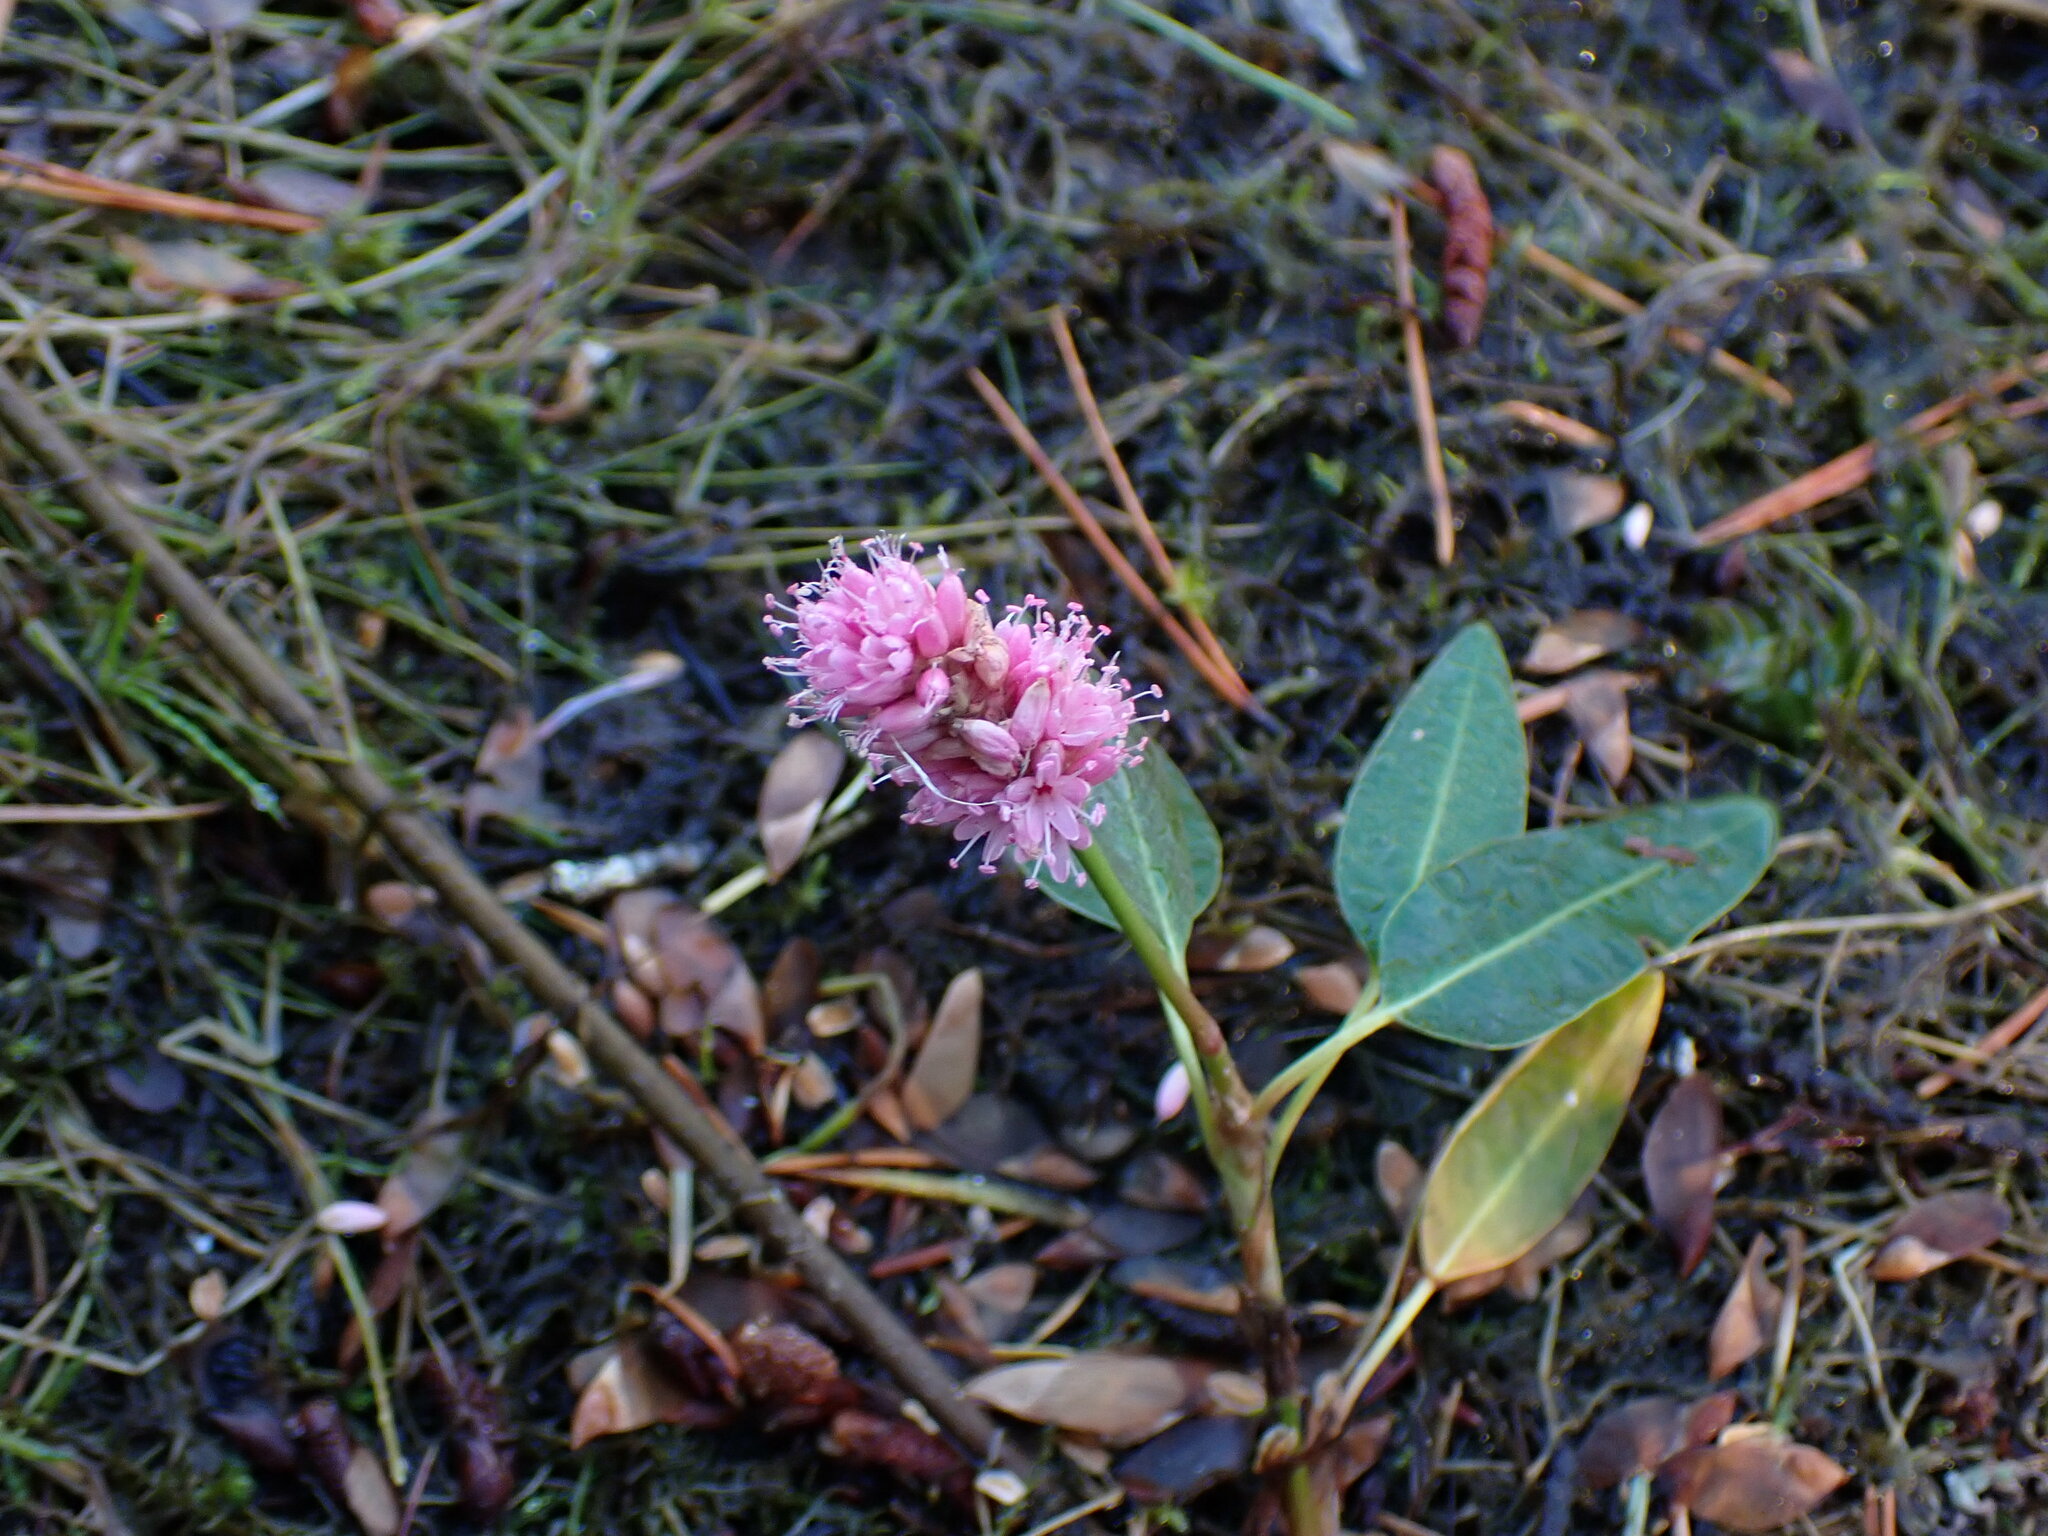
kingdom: Plantae
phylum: Tracheophyta
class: Magnoliopsida
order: Caryophyllales
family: Polygonaceae
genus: Persicaria
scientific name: Persicaria amphibia
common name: Amphibious bistort
